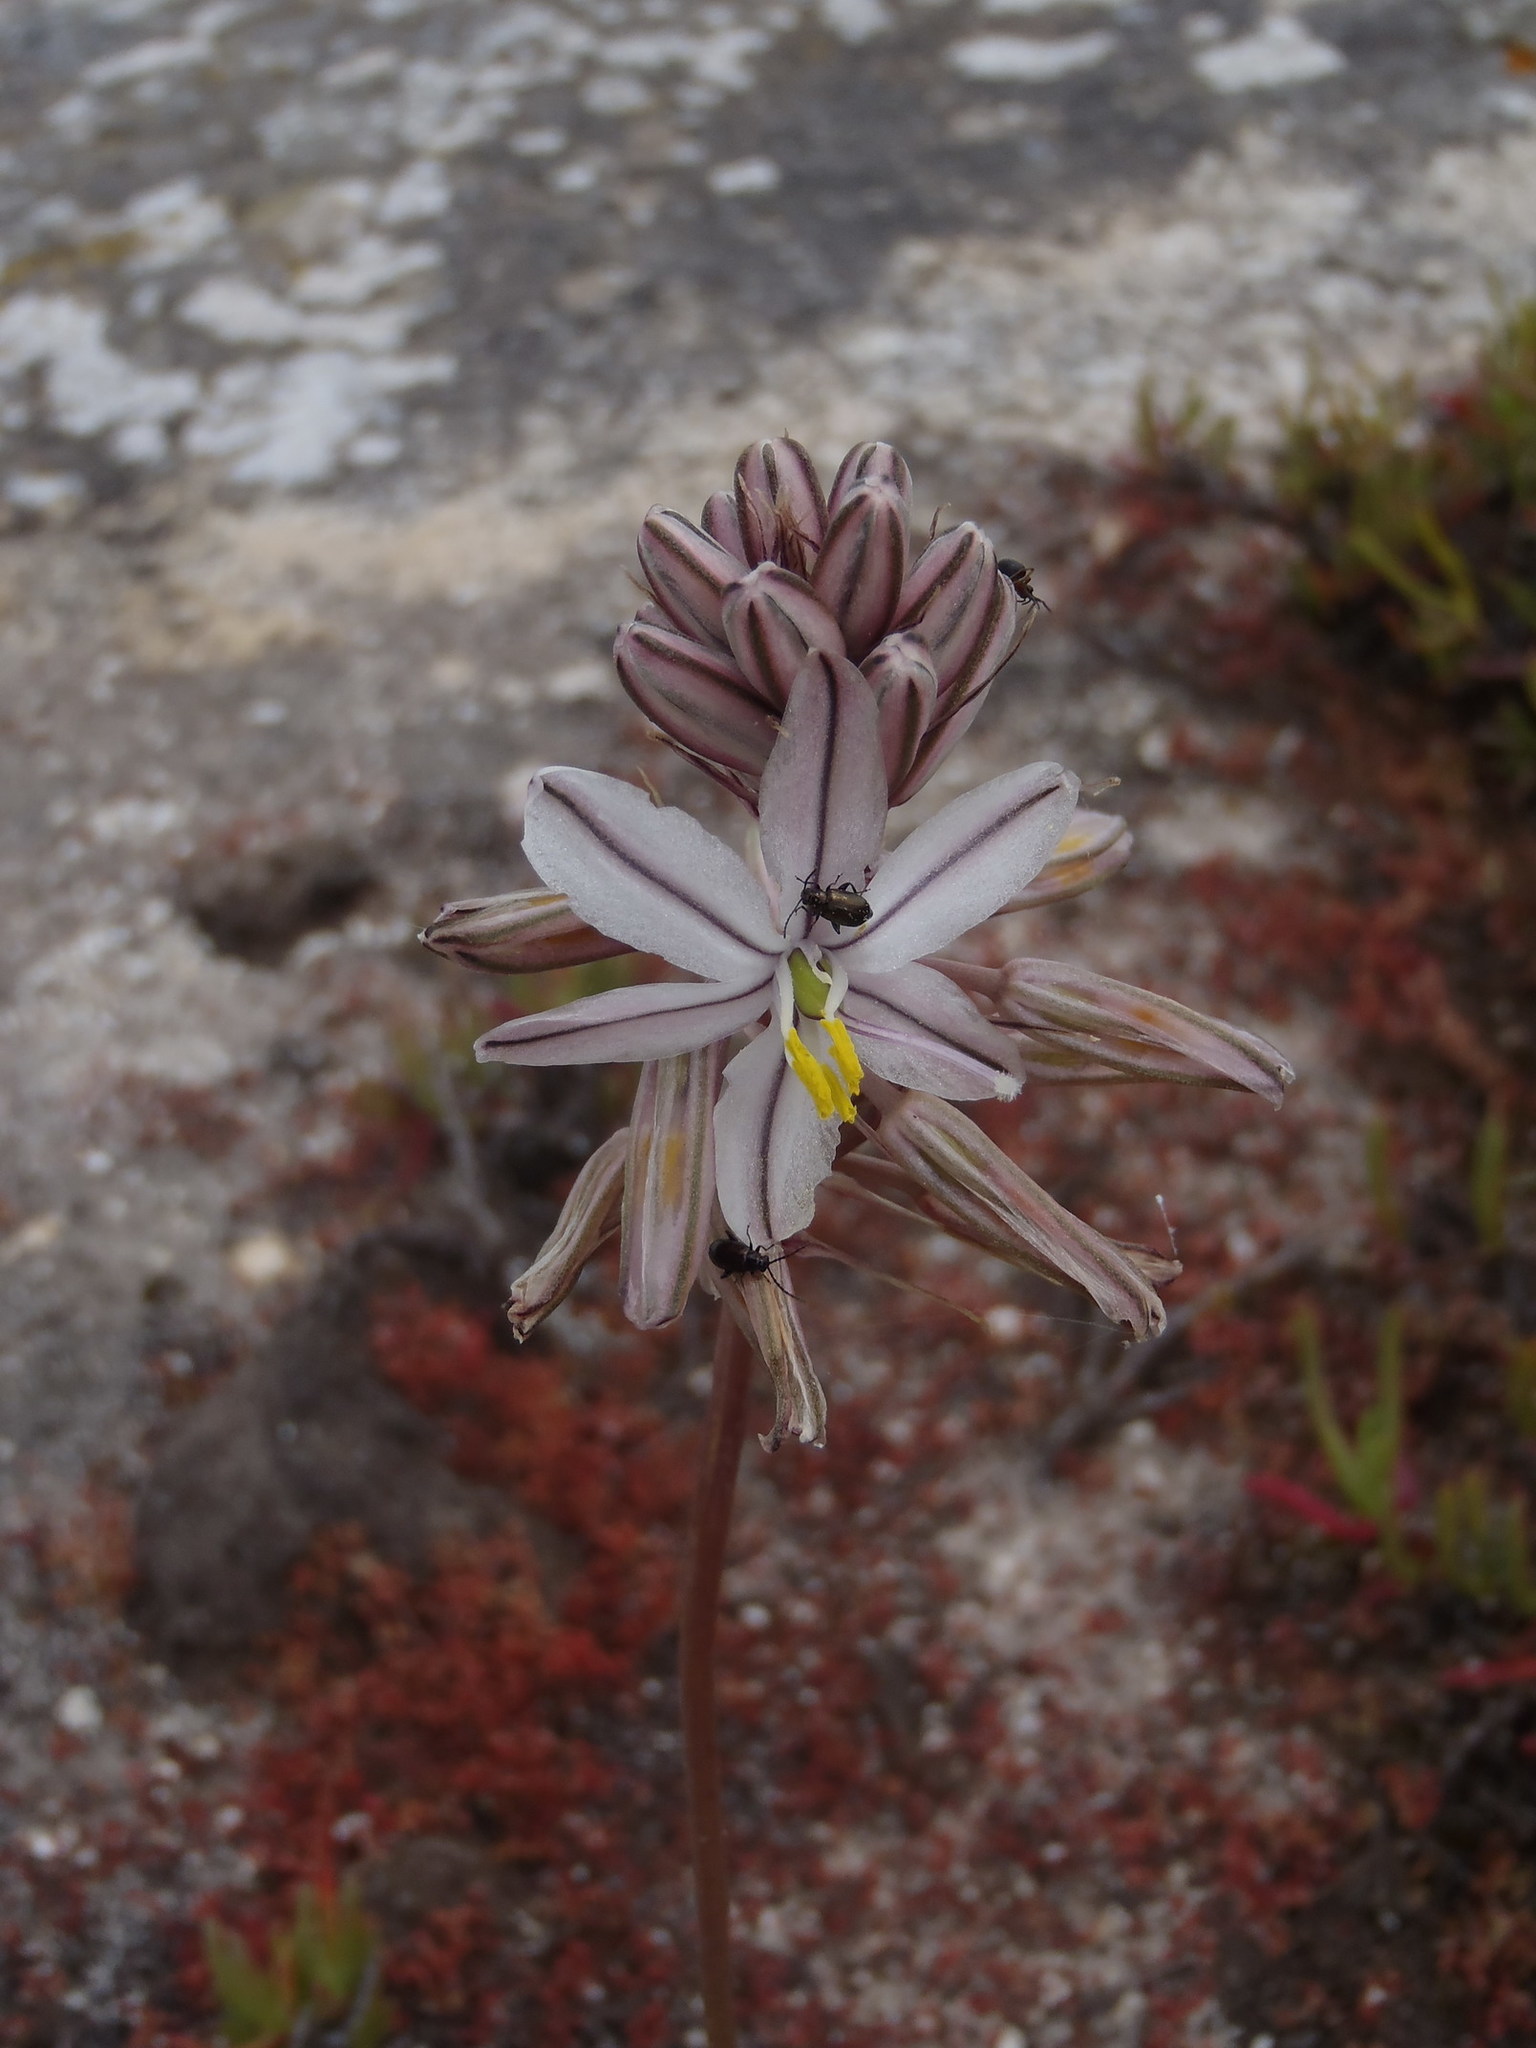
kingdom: Plantae
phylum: Tracheophyta
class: Liliopsida
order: Asparagales
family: Asparagaceae
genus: Drimia
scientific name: Drimia exuviata
